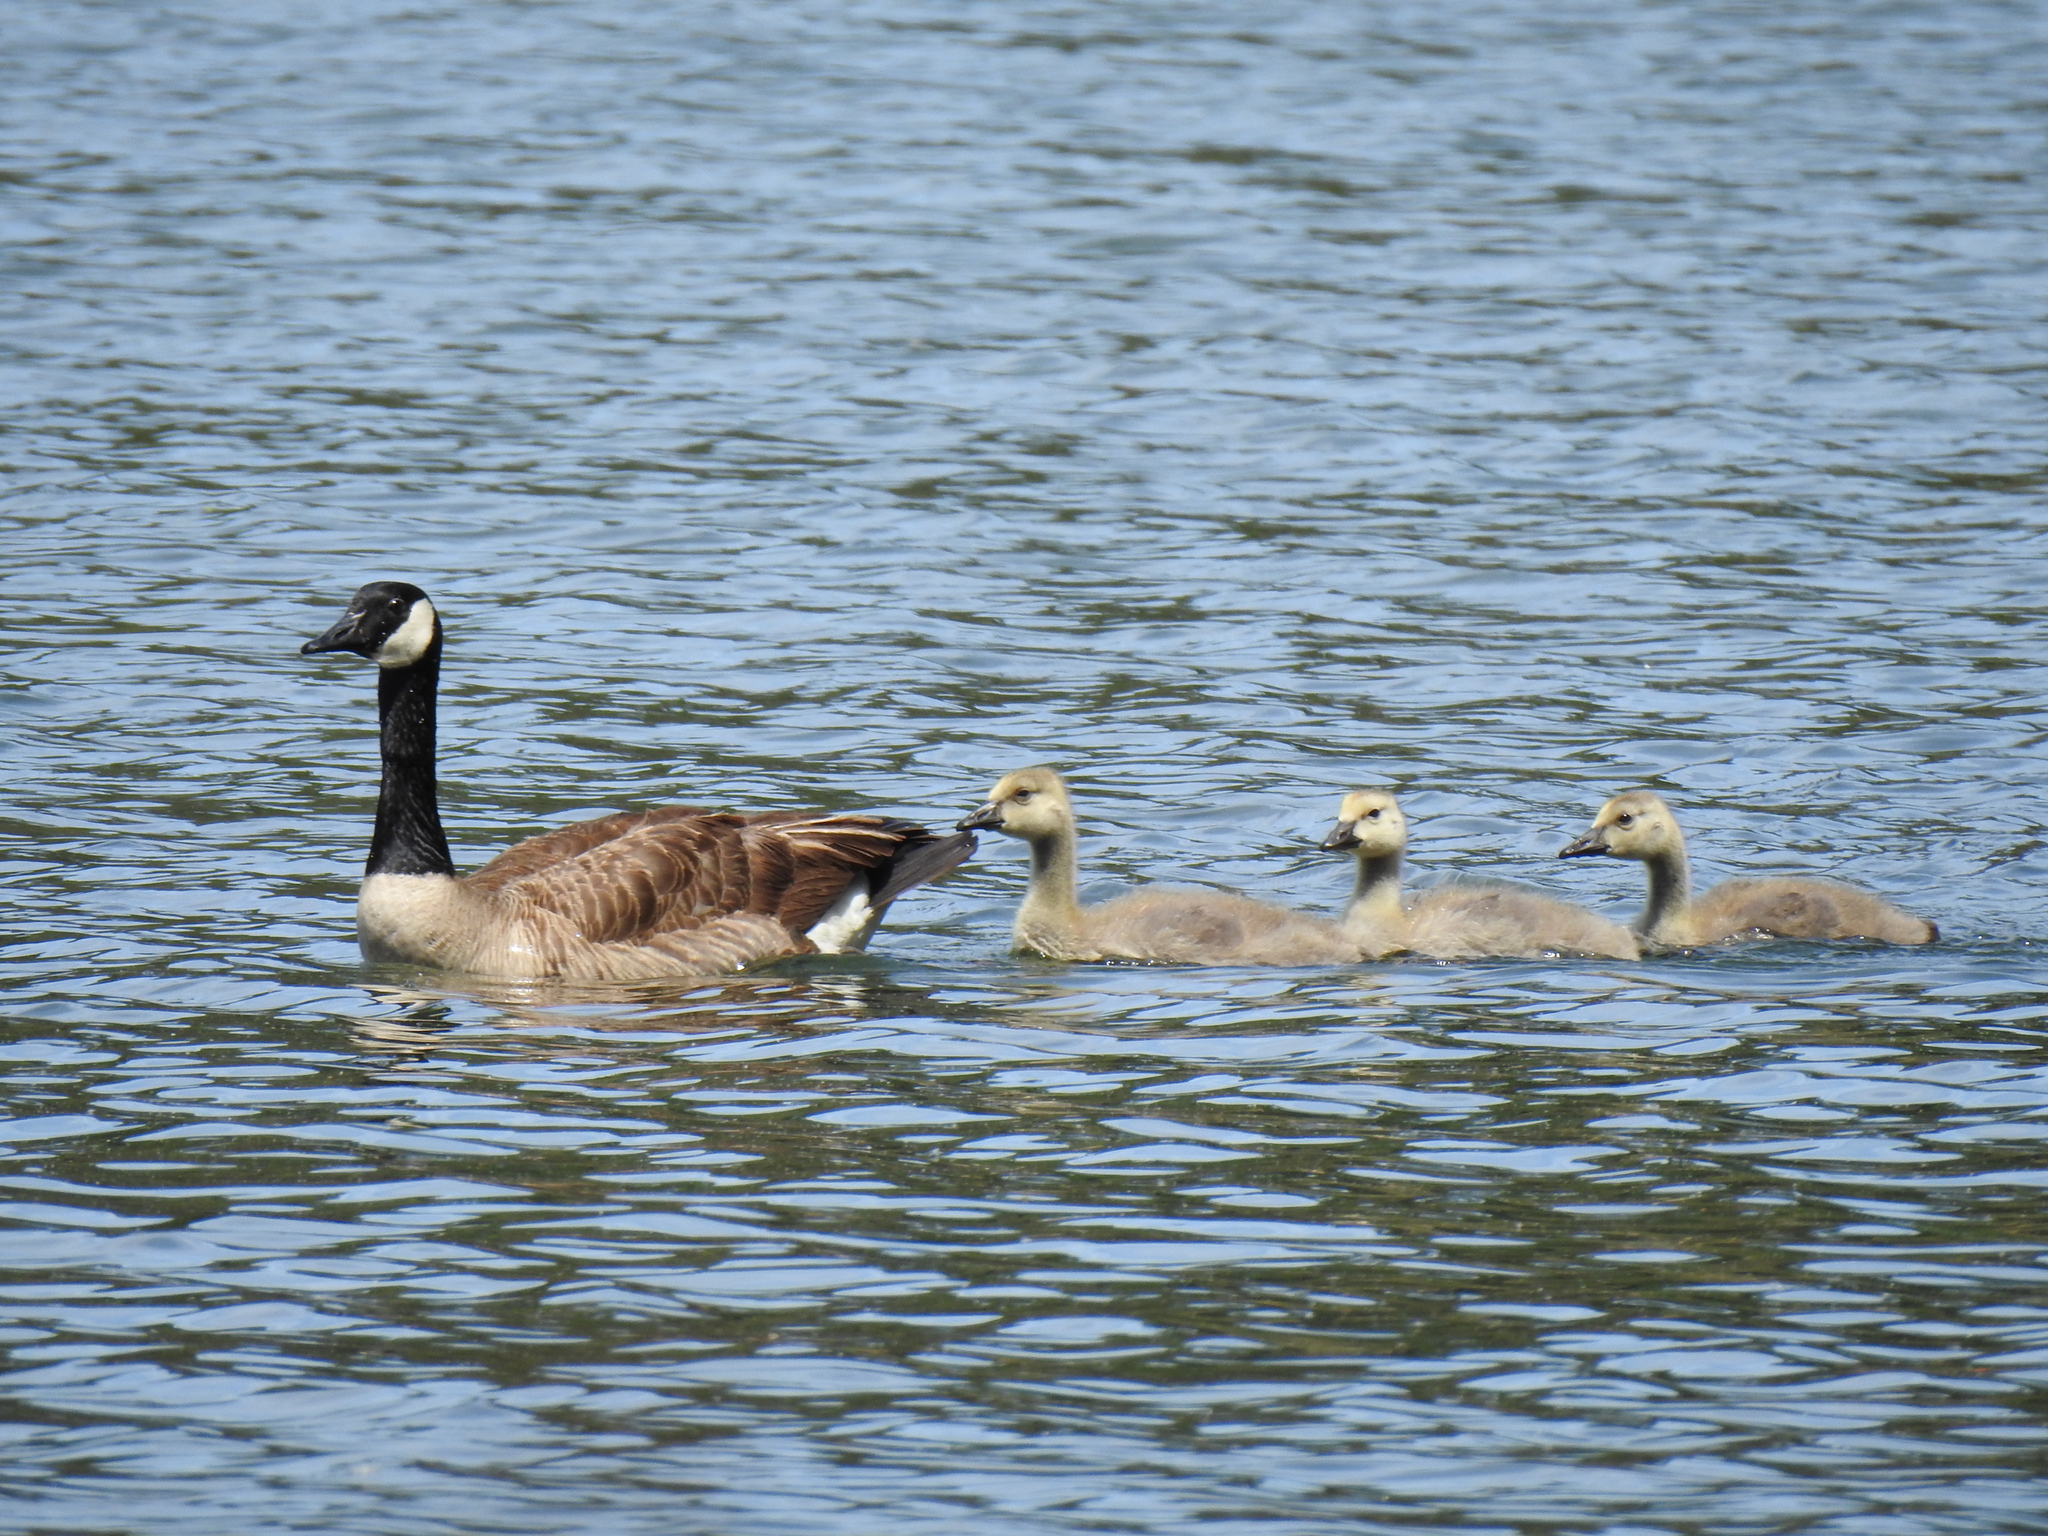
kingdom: Animalia
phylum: Chordata
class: Aves
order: Anseriformes
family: Anatidae
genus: Branta
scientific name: Branta canadensis
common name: Canada goose
